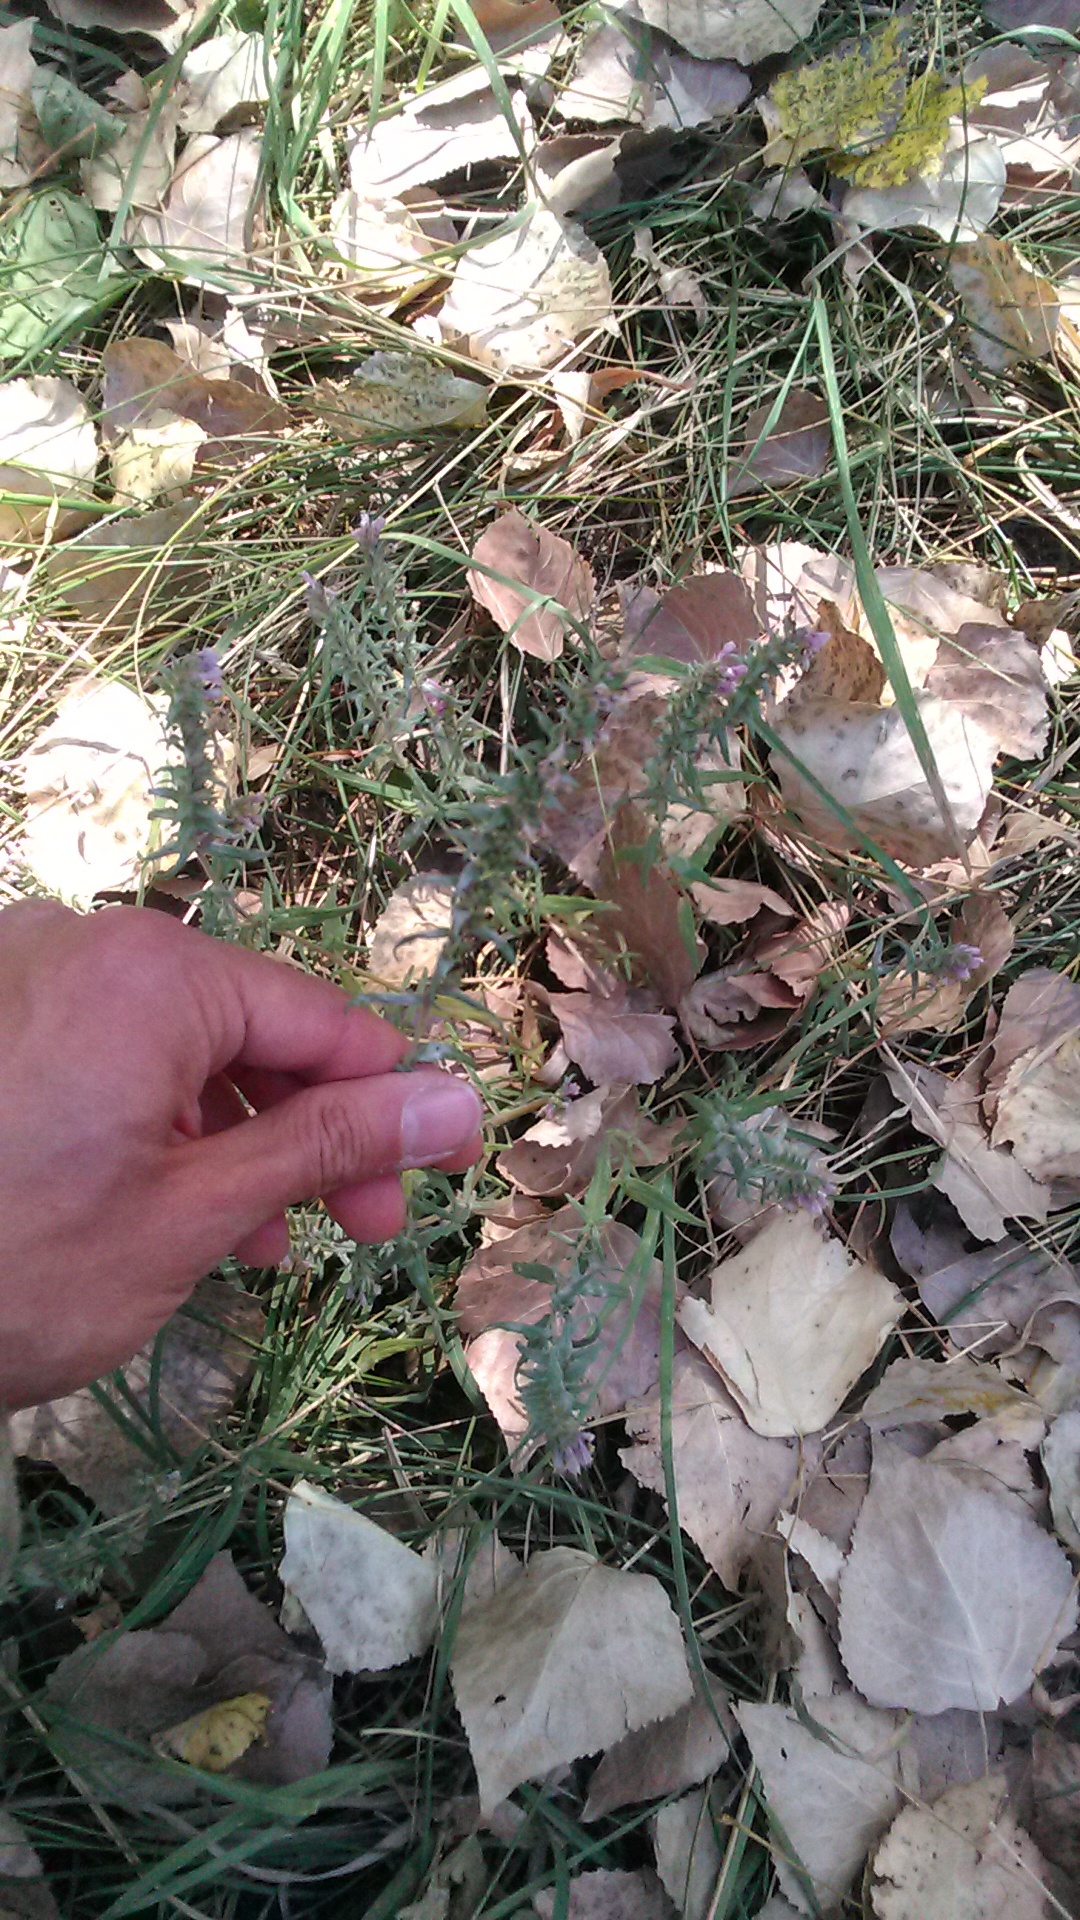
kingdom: Plantae
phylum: Tracheophyta
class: Magnoliopsida
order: Lamiales
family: Orobanchaceae
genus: Odontites
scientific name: Odontites vulgaris
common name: Broomrape
